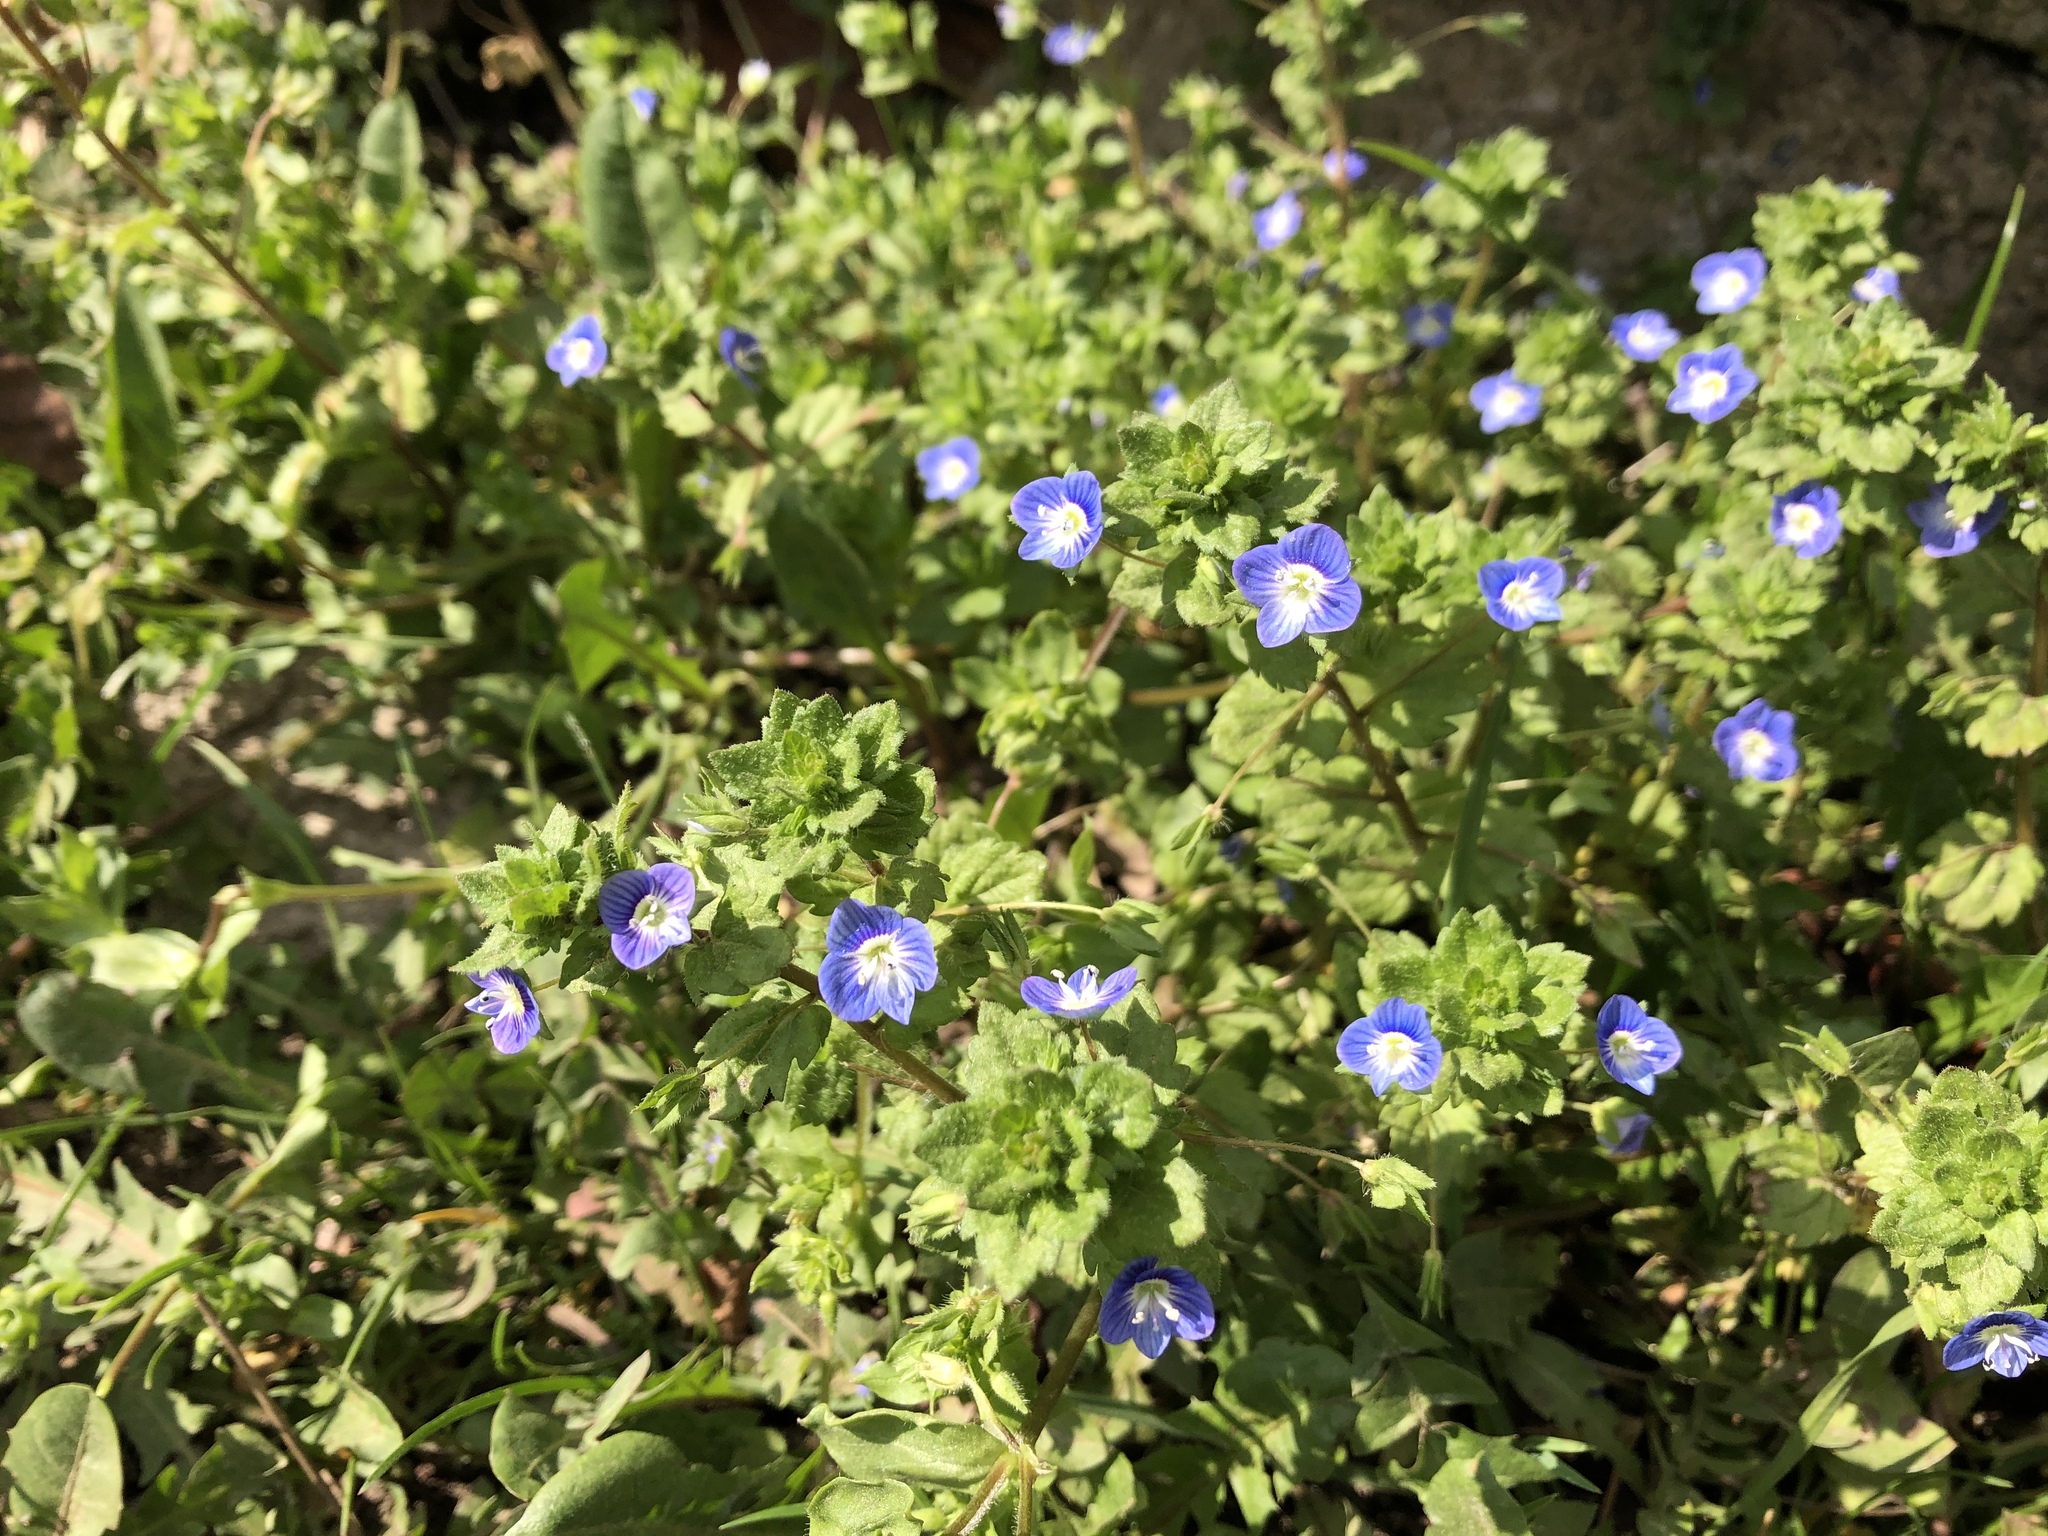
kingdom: Plantae
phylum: Tracheophyta
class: Magnoliopsida
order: Lamiales
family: Plantaginaceae
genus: Veronica
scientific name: Veronica persica
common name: Common field-speedwell
